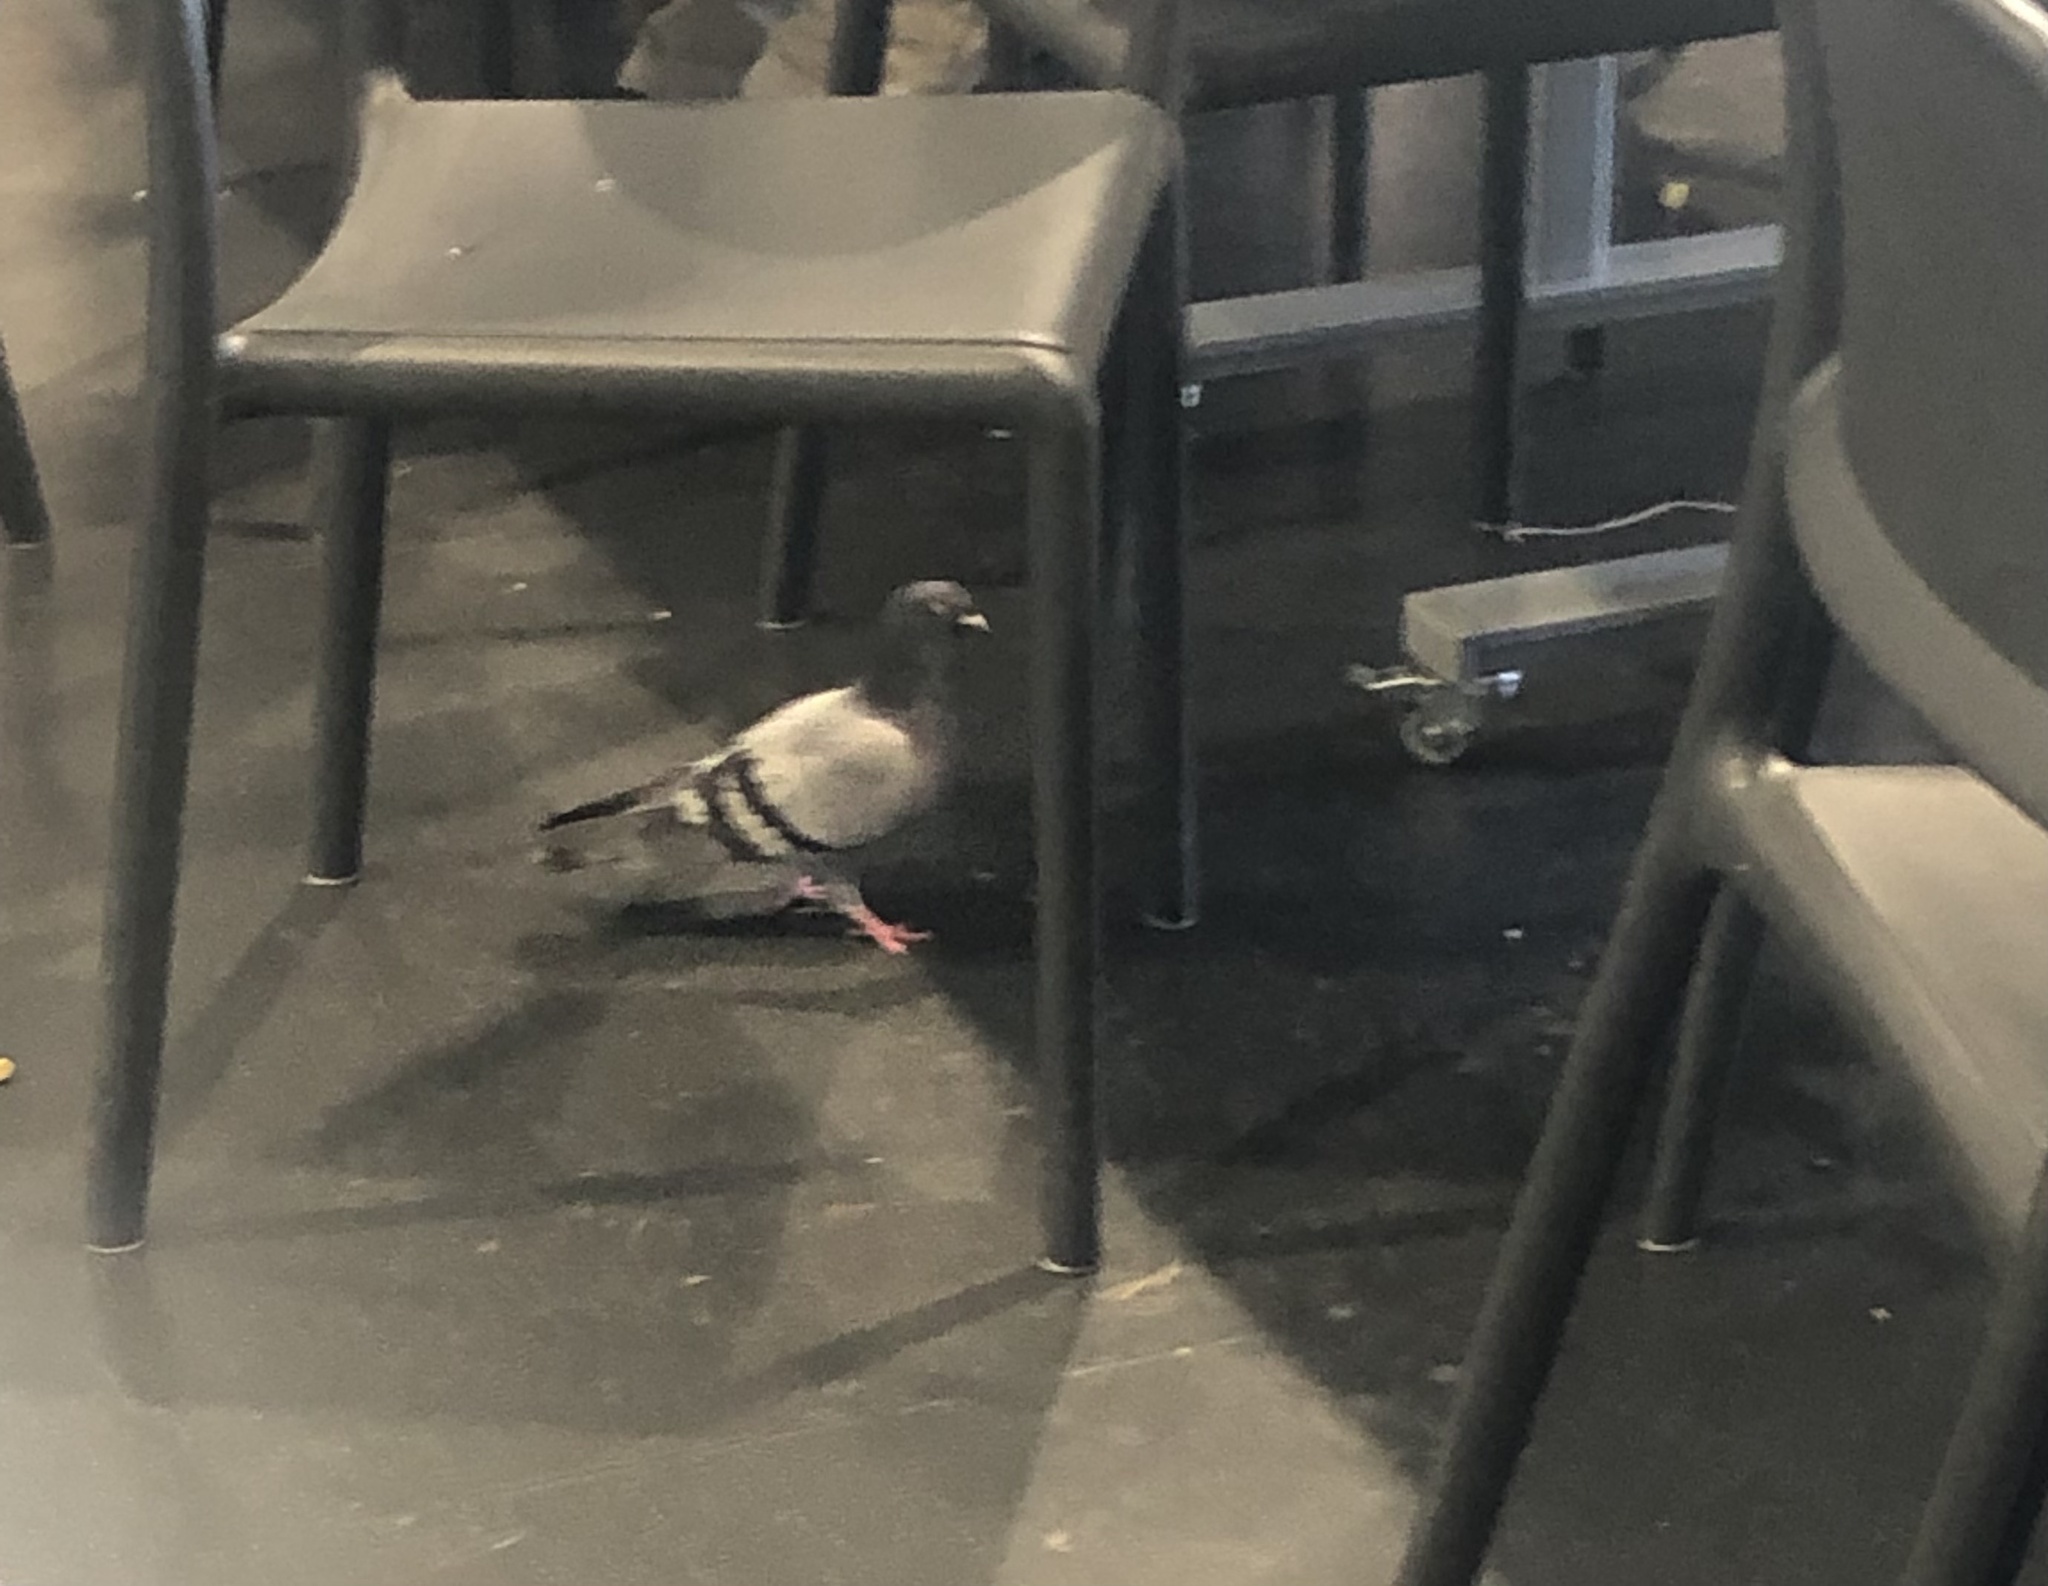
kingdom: Animalia
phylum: Chordata
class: Aves
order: Columbiformes
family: Columbidae
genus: Columba
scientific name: Columba livia
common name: Rock pigeon
